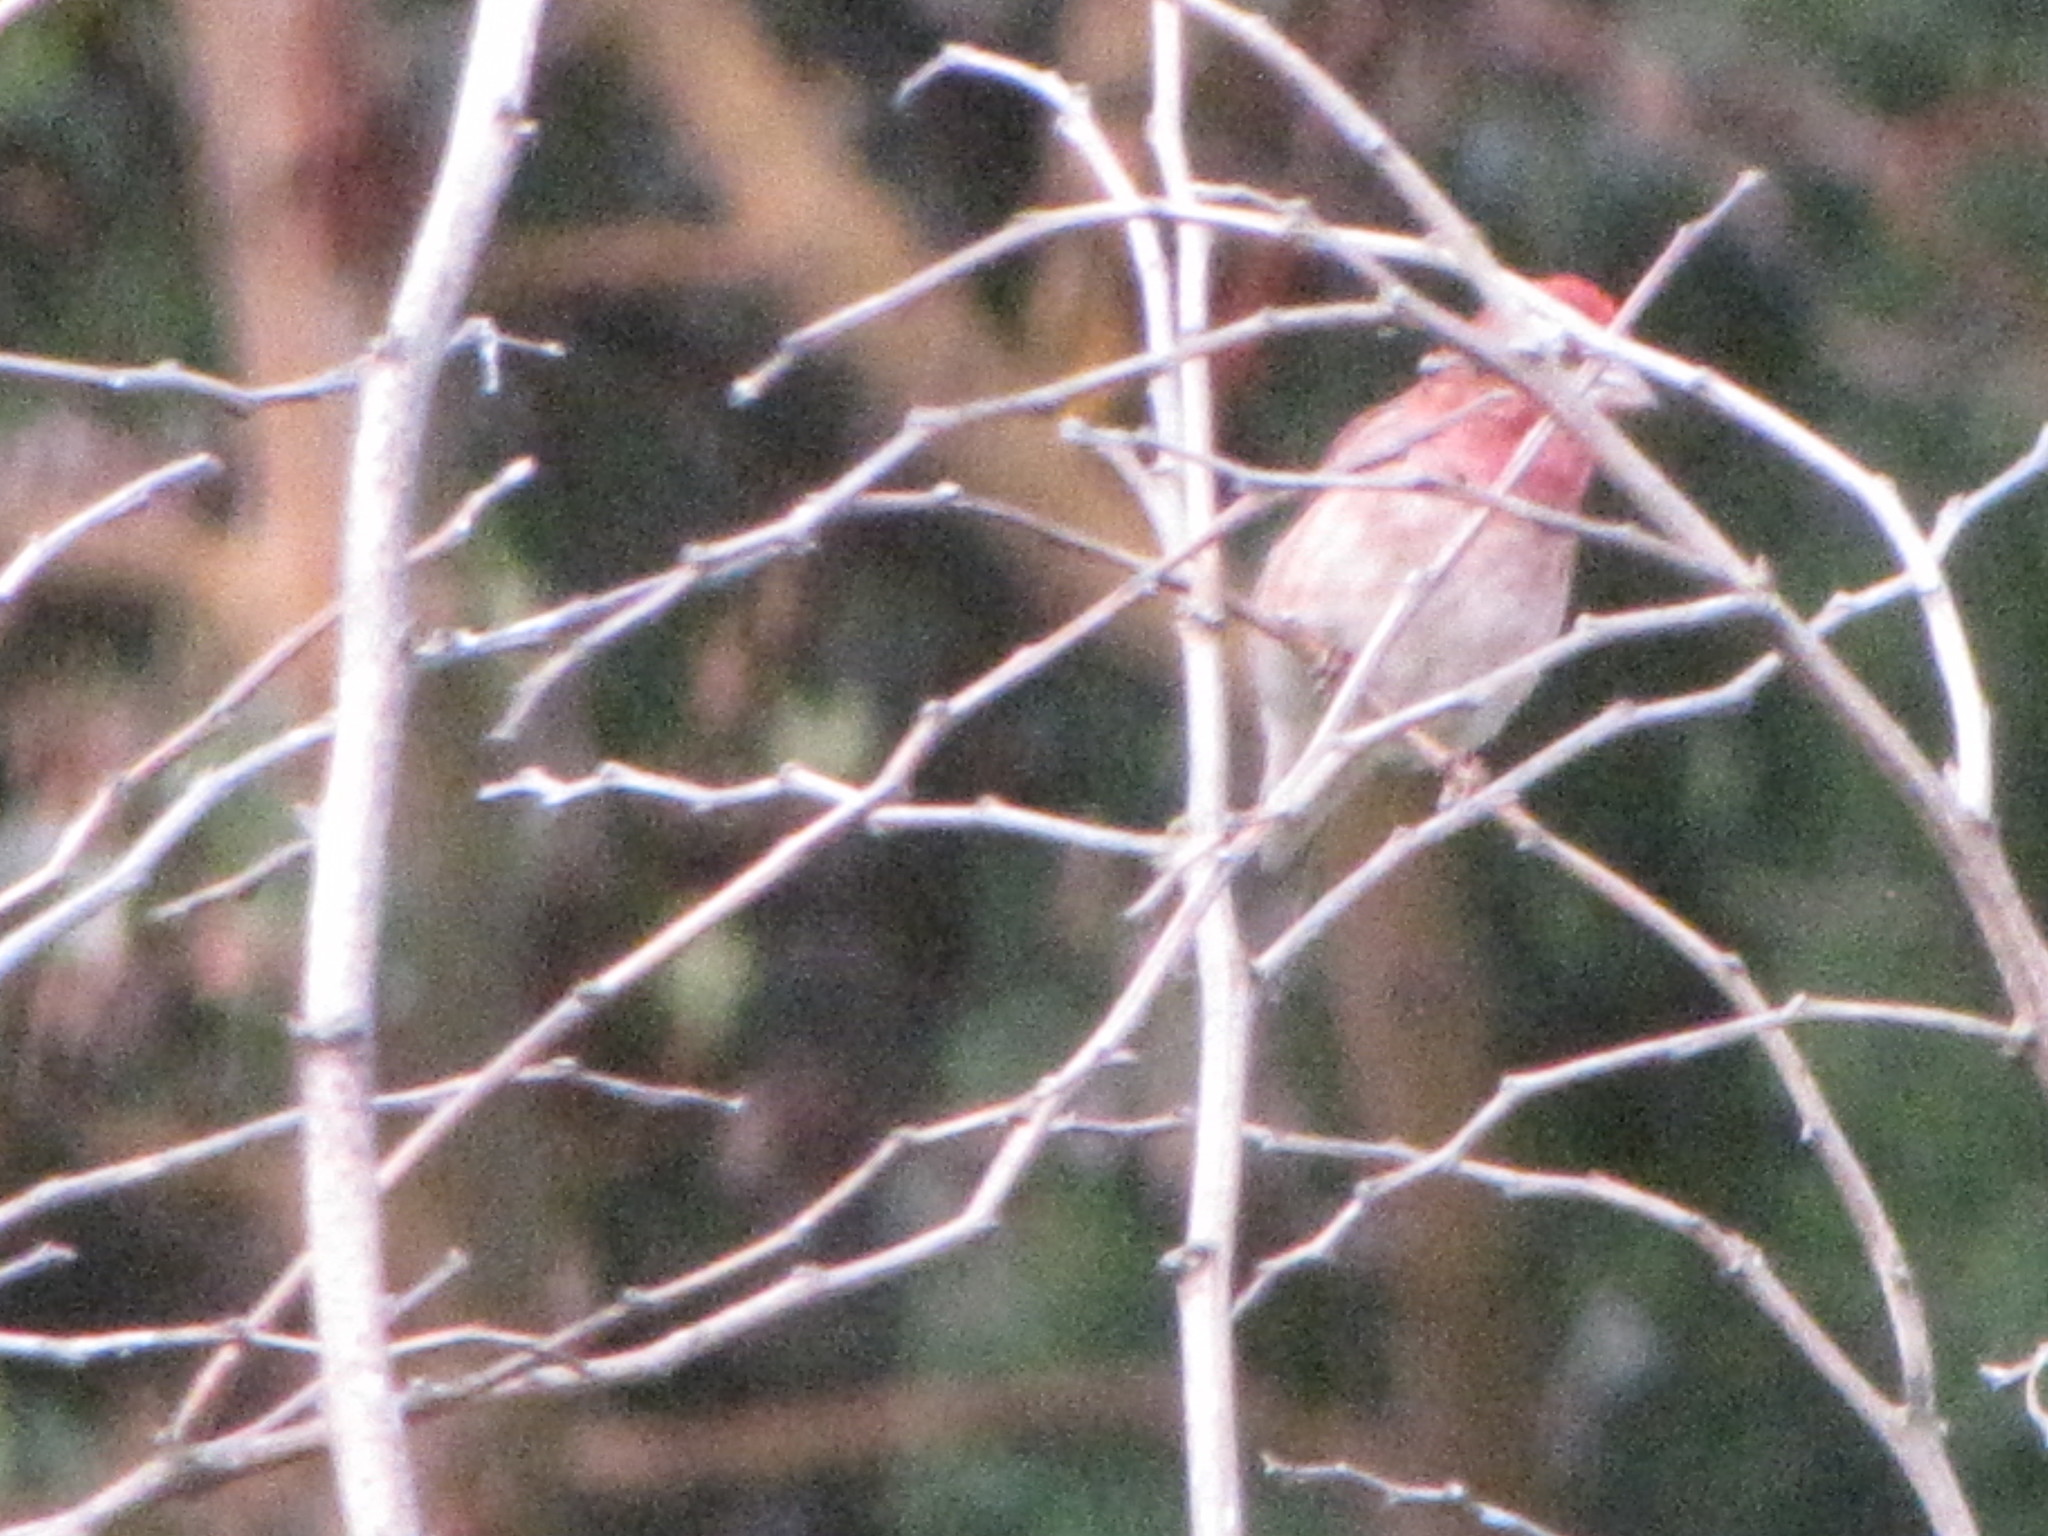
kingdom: Animalia
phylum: Chordata
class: Aves
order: Passeriformes
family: Fringillidae
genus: Haemorhous
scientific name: Haemorhous purpureus
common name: Purple finch
